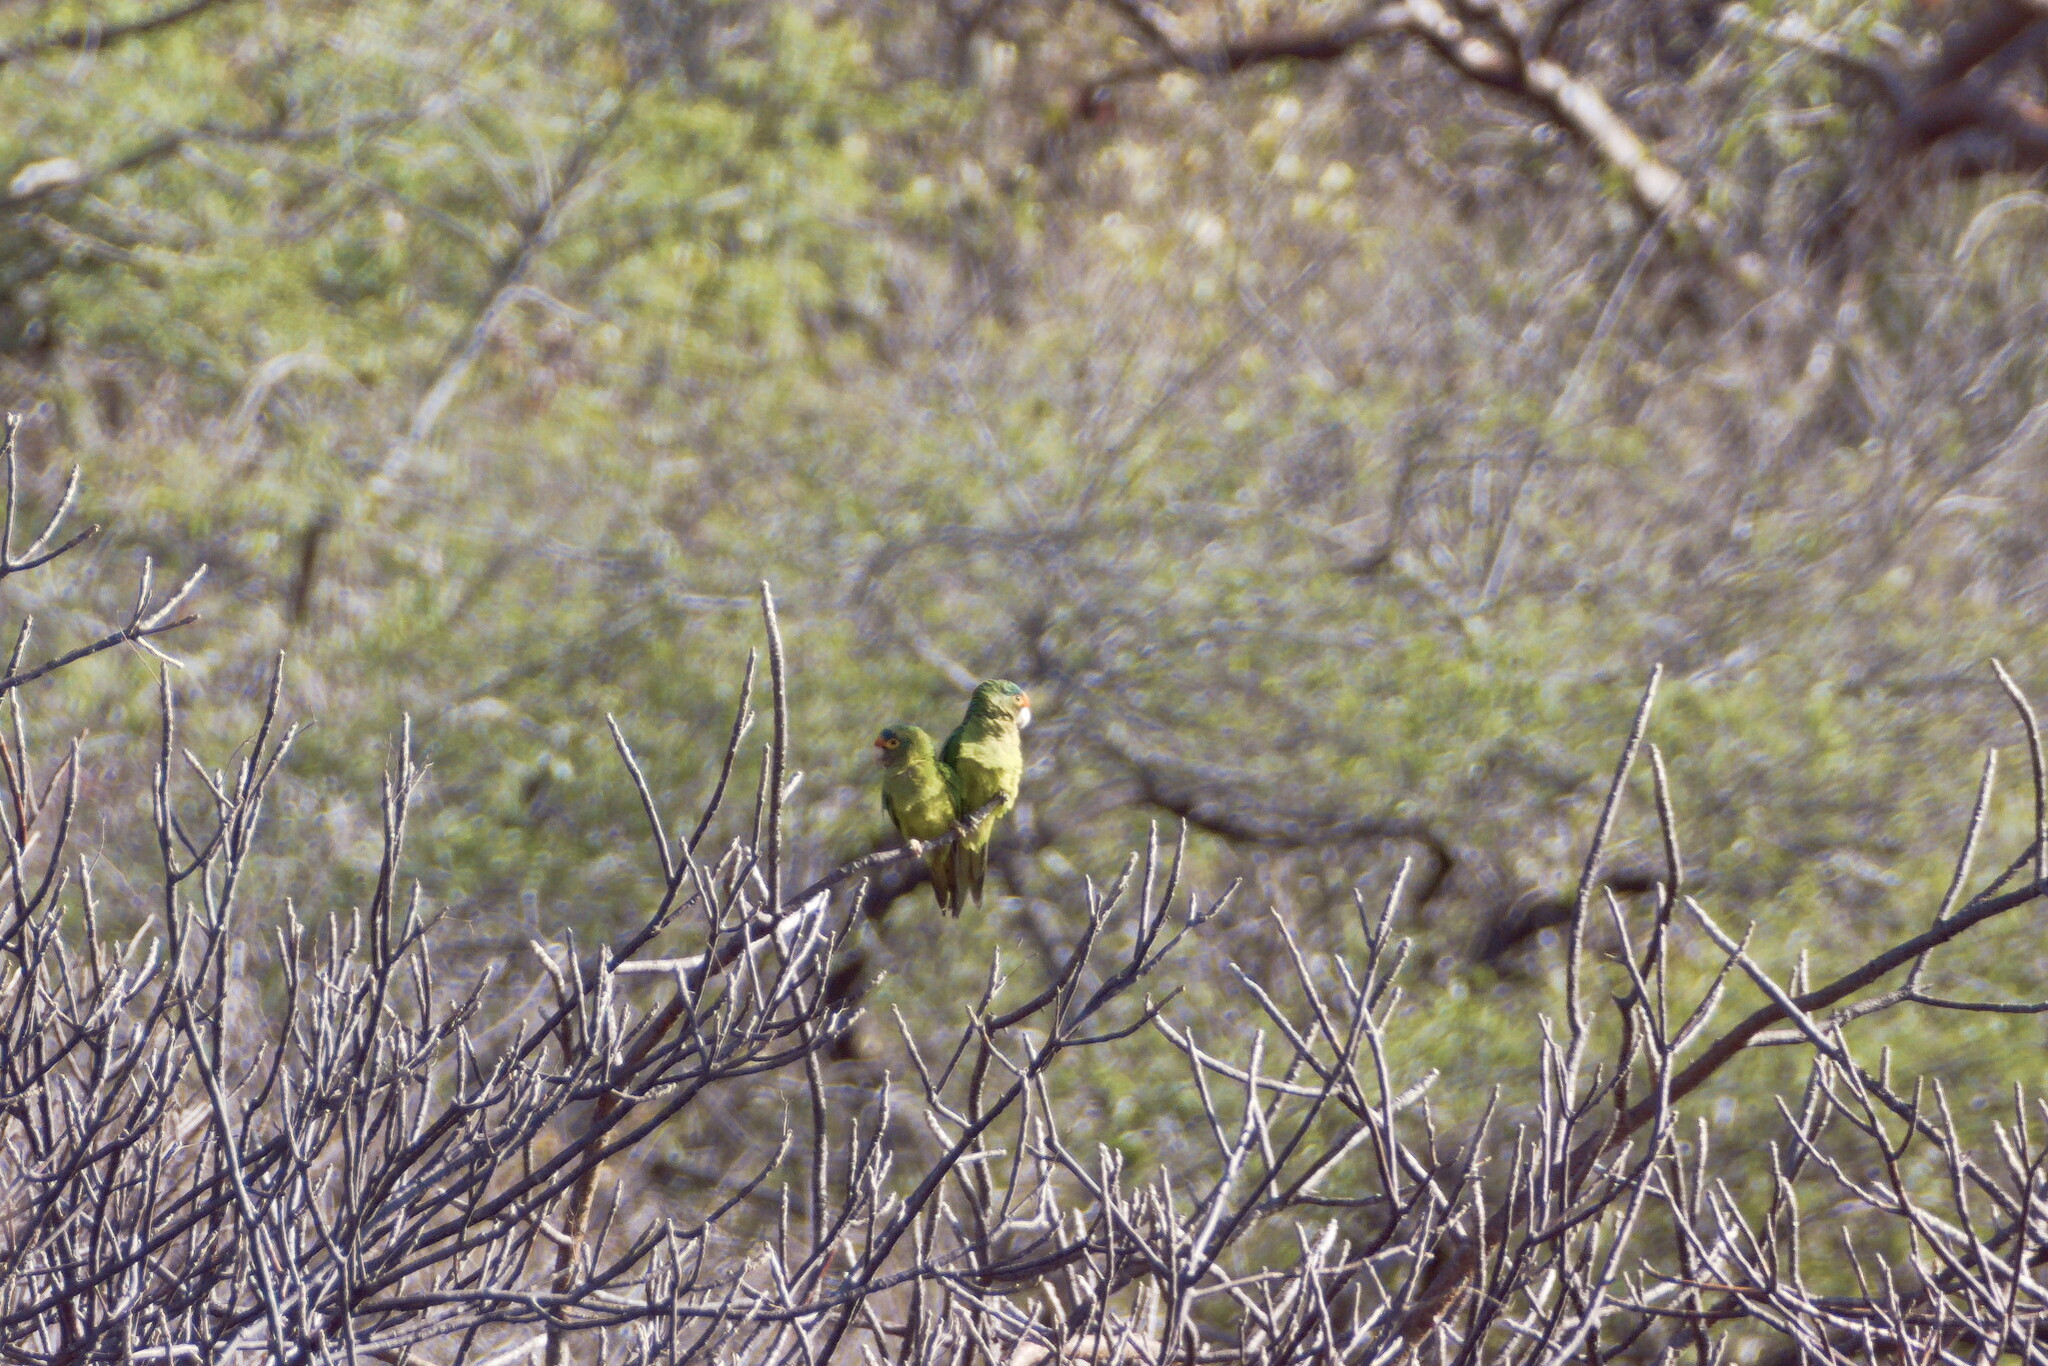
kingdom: Animalia
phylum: Chordata
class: Aves
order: Psittaciformes
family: Psittacidae
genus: Aratinga
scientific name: Aratinga canicularis
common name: Orange-fronted parakeet
